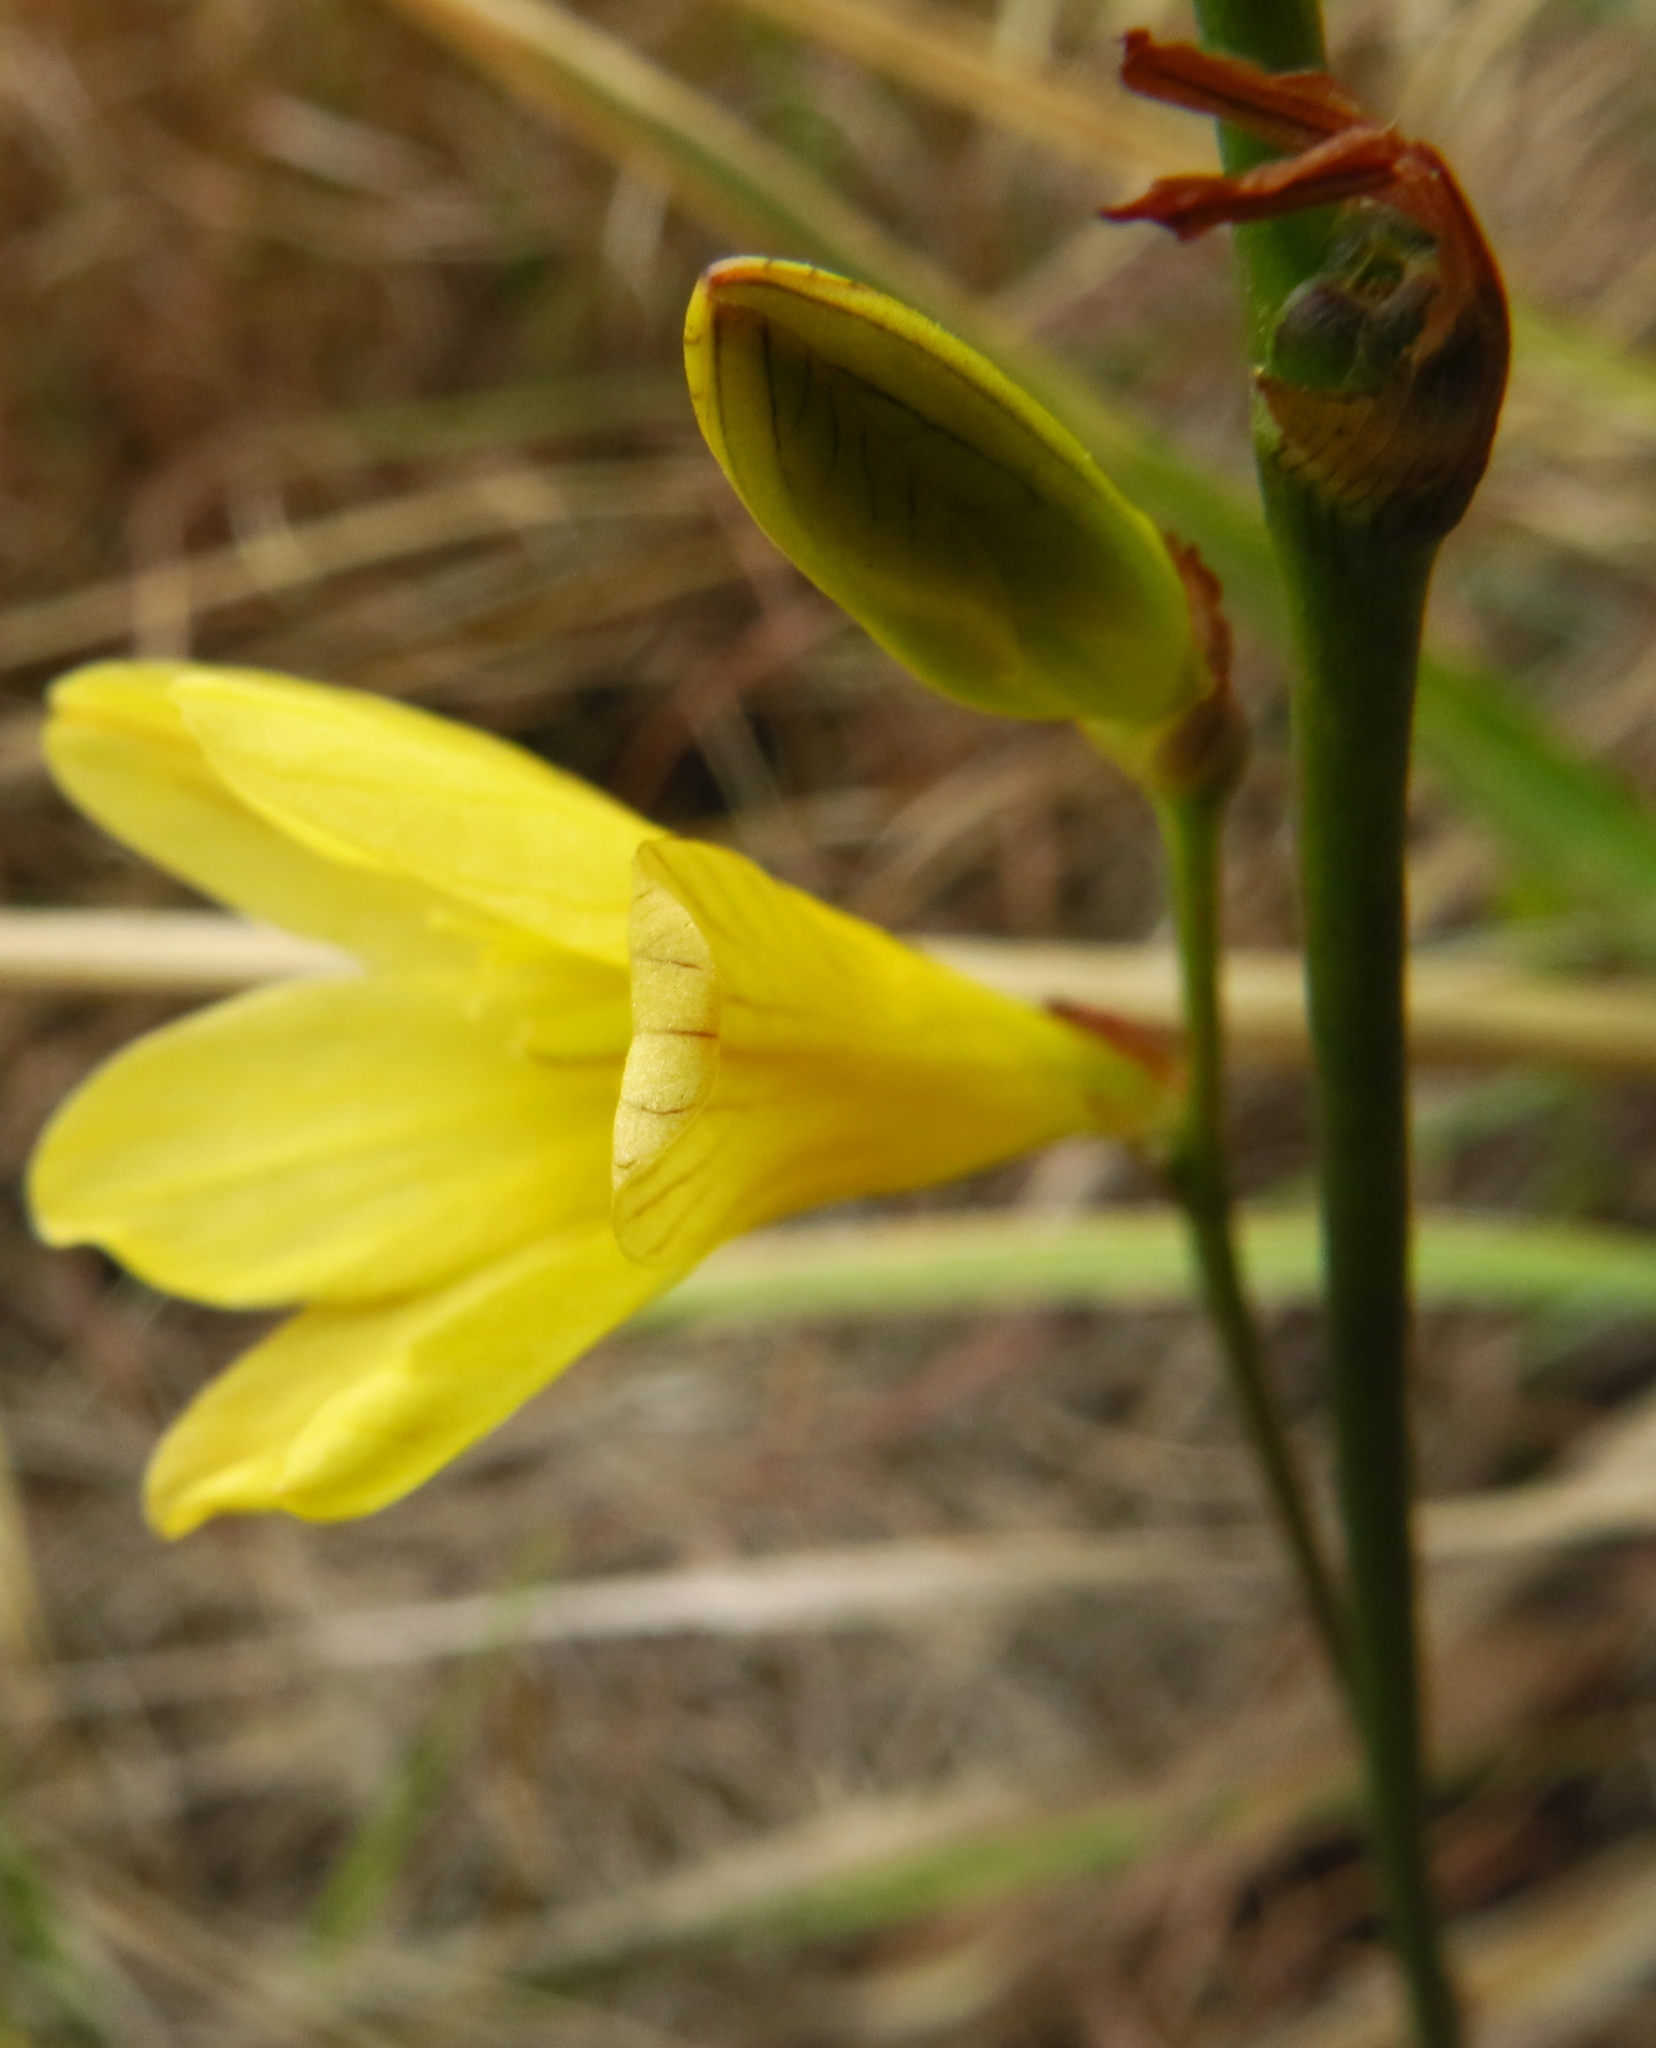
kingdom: Plantae
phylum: Tracheophyta
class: Liliopsida
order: Asparagales
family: Iridaceae
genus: Tritonia
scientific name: Tritonia gladiolaris
